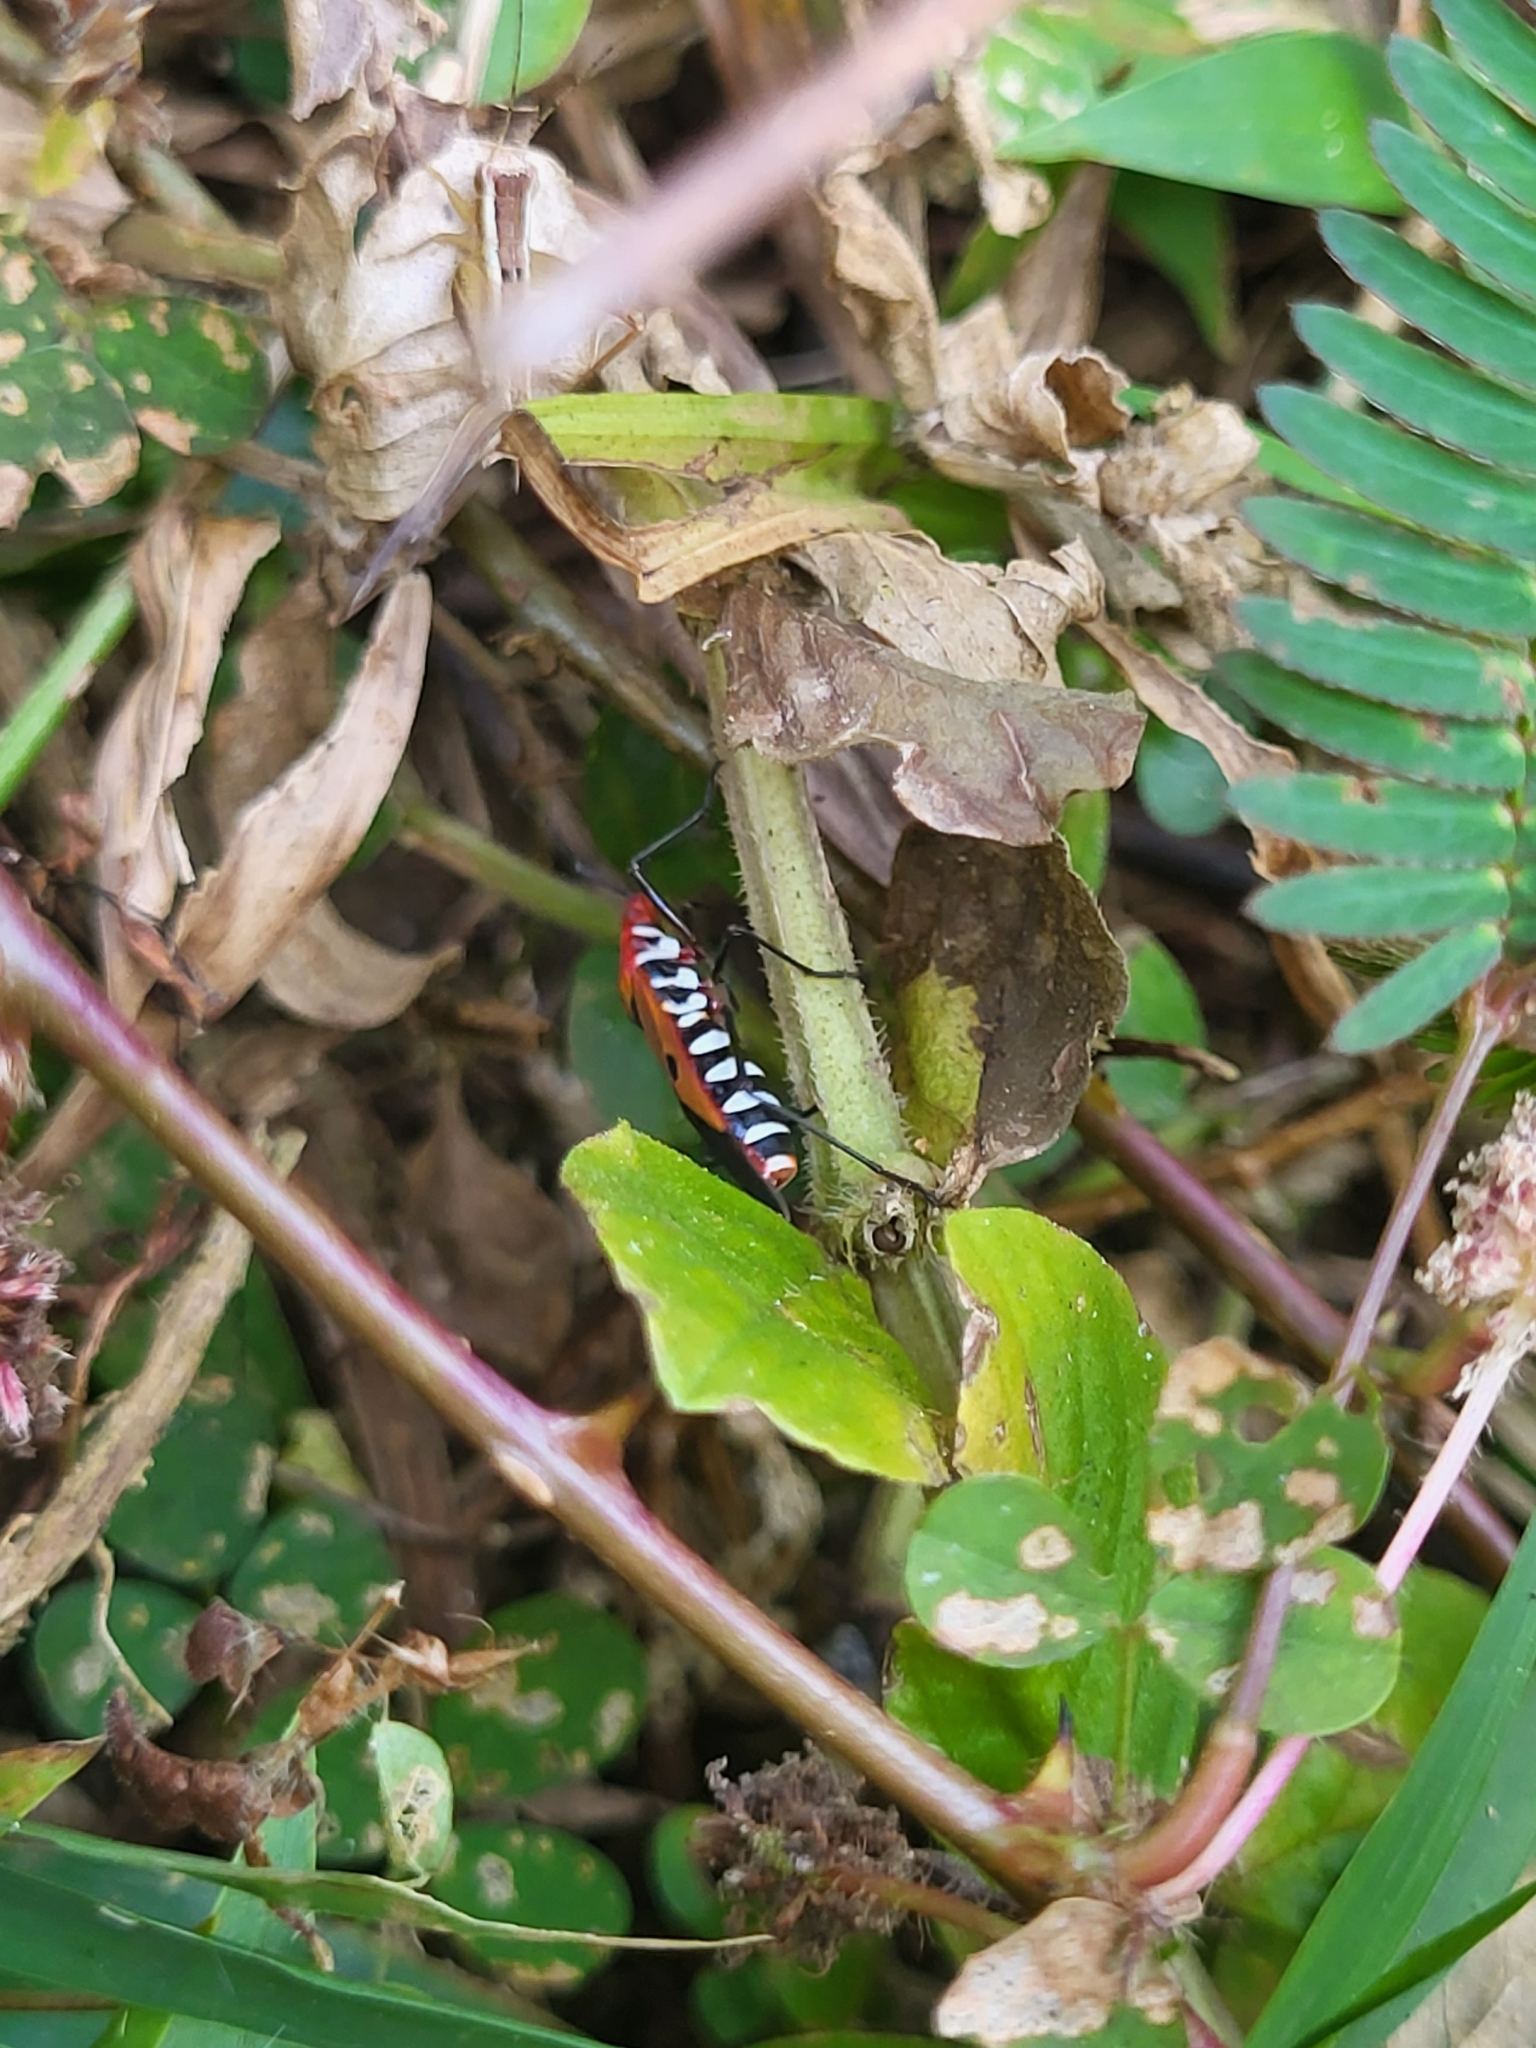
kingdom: Animalia
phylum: Arthropoda
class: Insecta
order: Hemiptera
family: Pyrrhocoridae
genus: Dysdercus
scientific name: Dysdercus cingulatus
